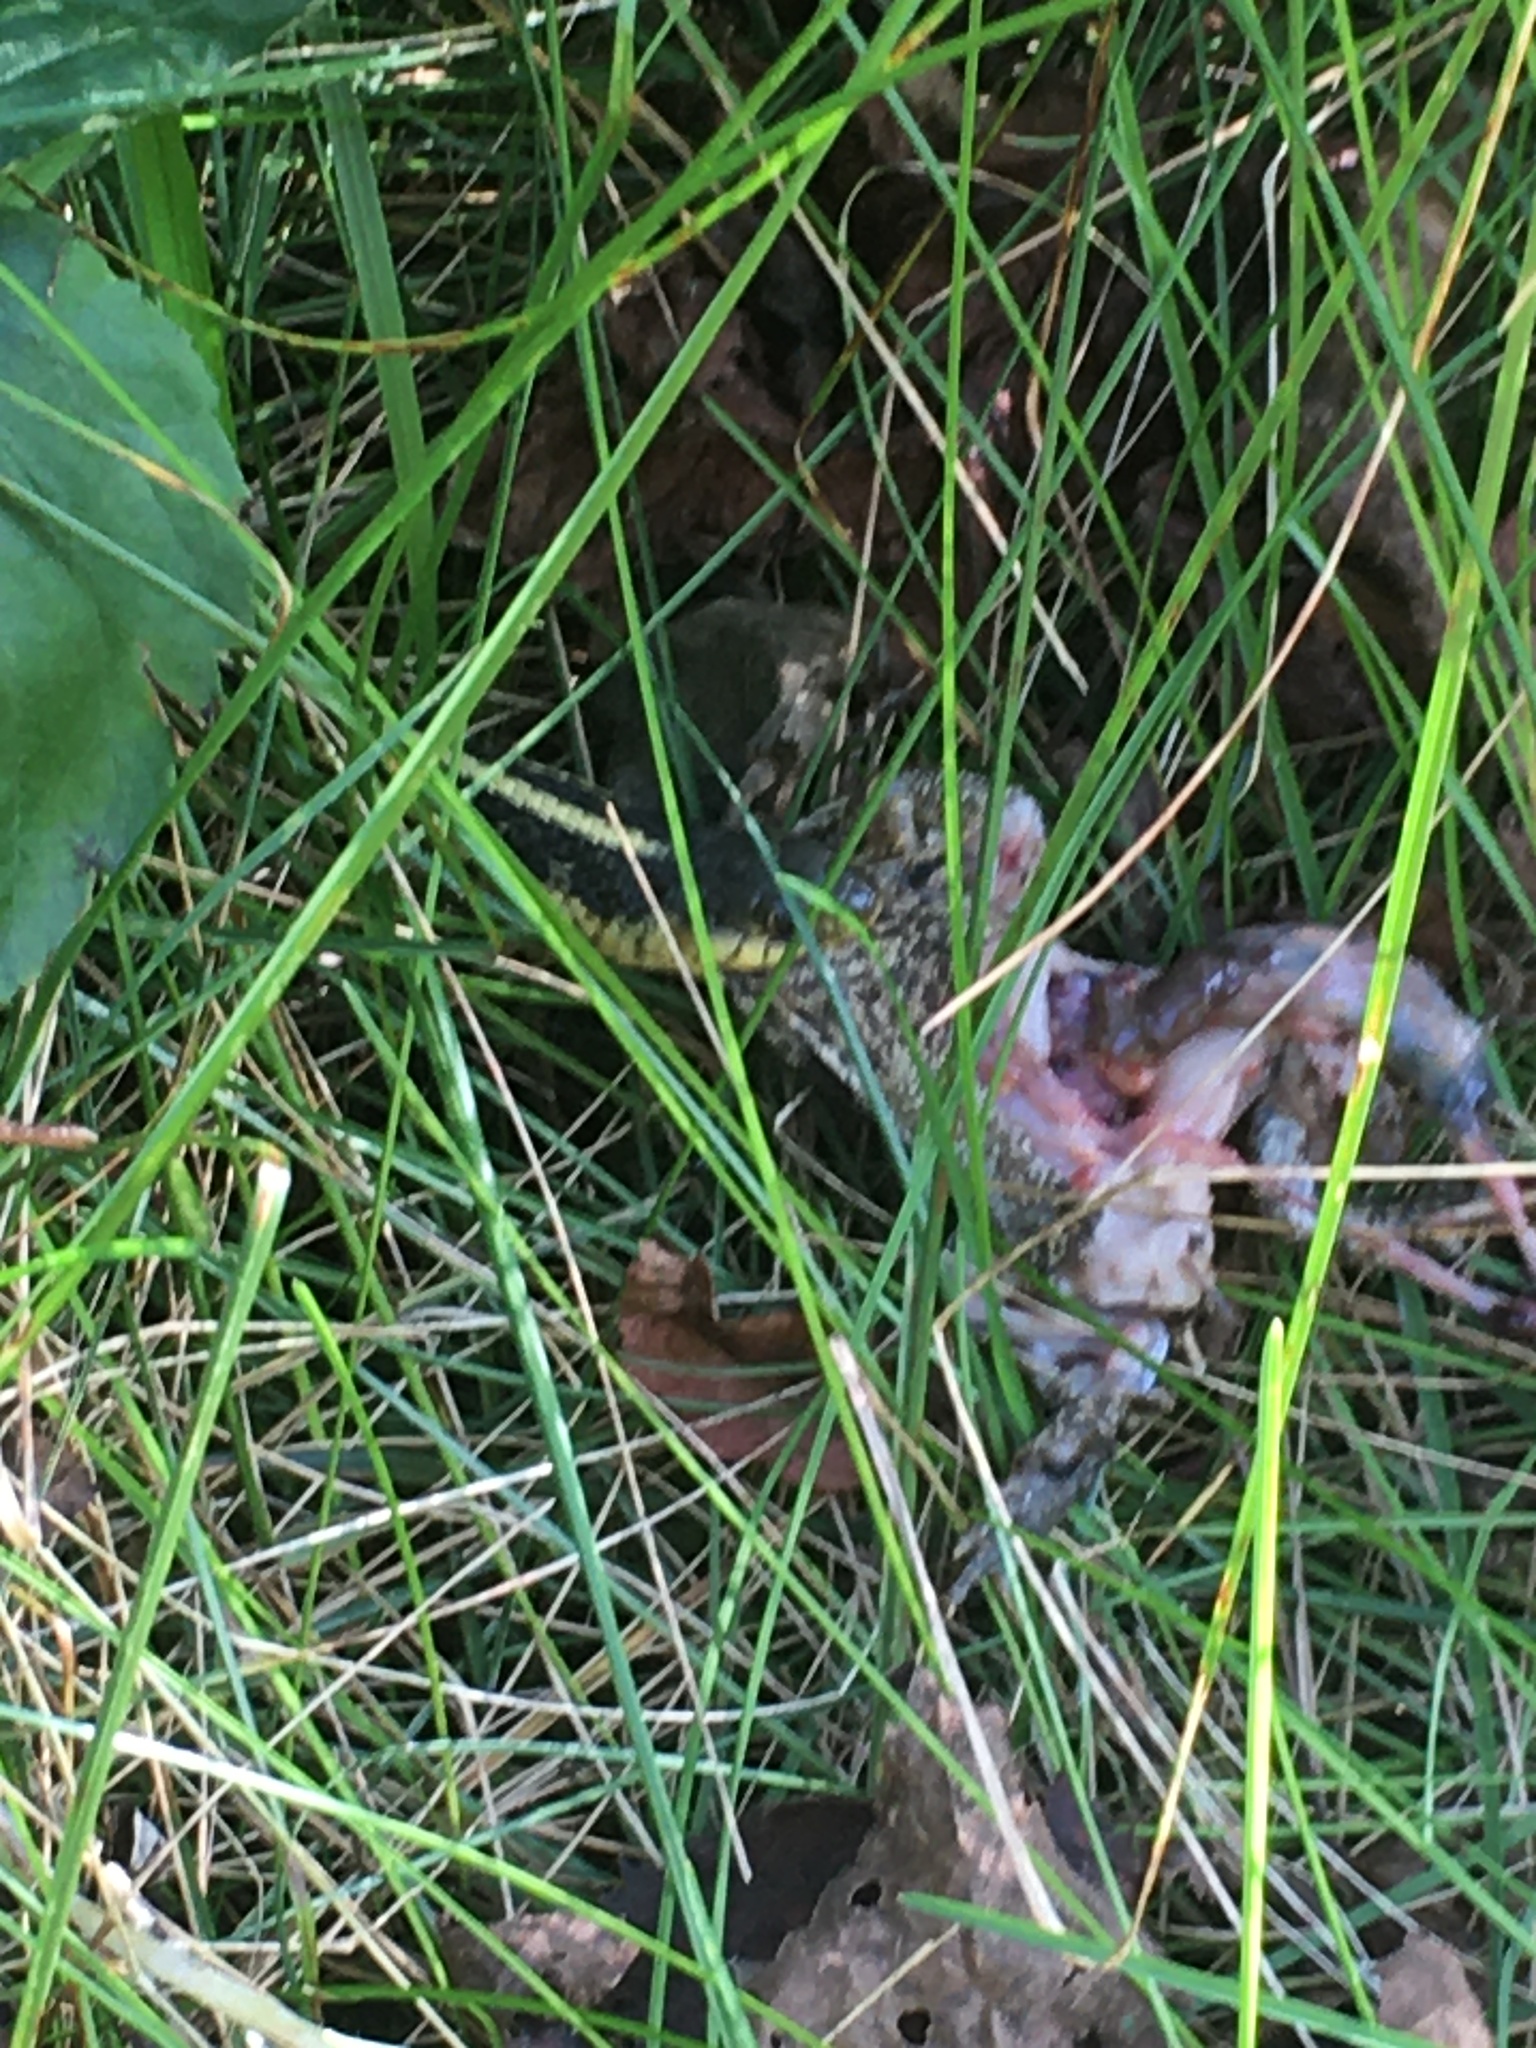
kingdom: Animalia
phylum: Chordata
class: Squamata
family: Colubridae
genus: Thamnophis
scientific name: Thamnophis sirtalis
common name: Common garter snake
